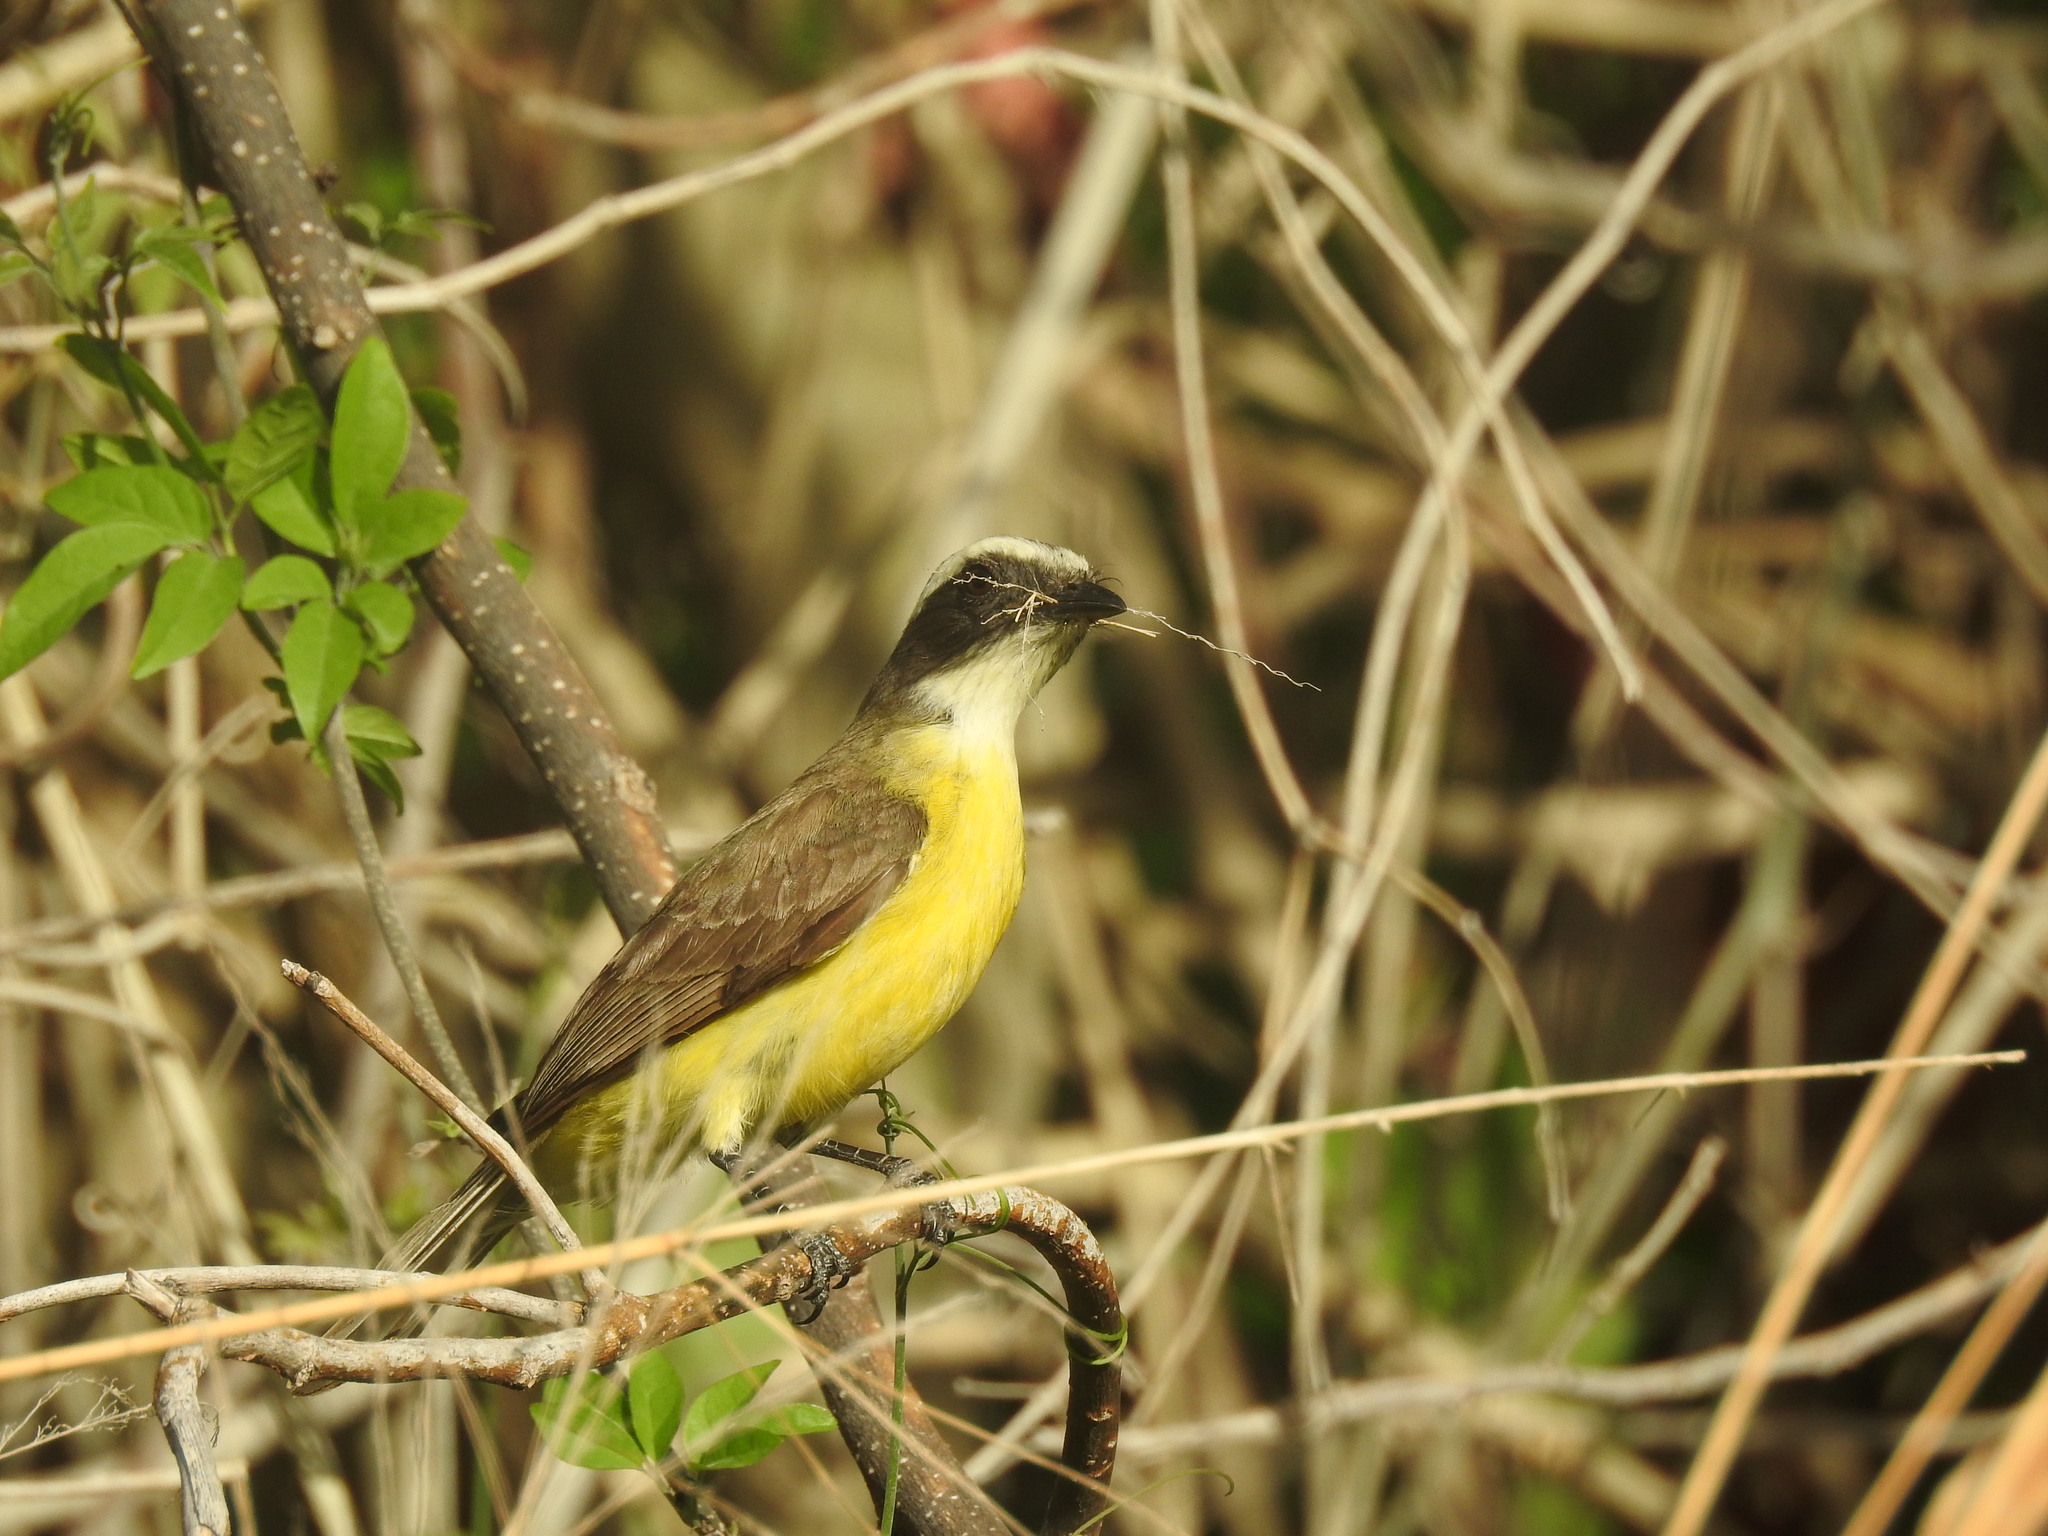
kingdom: Animalia
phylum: Chordata
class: Aves
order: Passeriformes
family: Tyrannidae
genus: Myiozetetes
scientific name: Myiozetetes similis
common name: Social flycatcher
